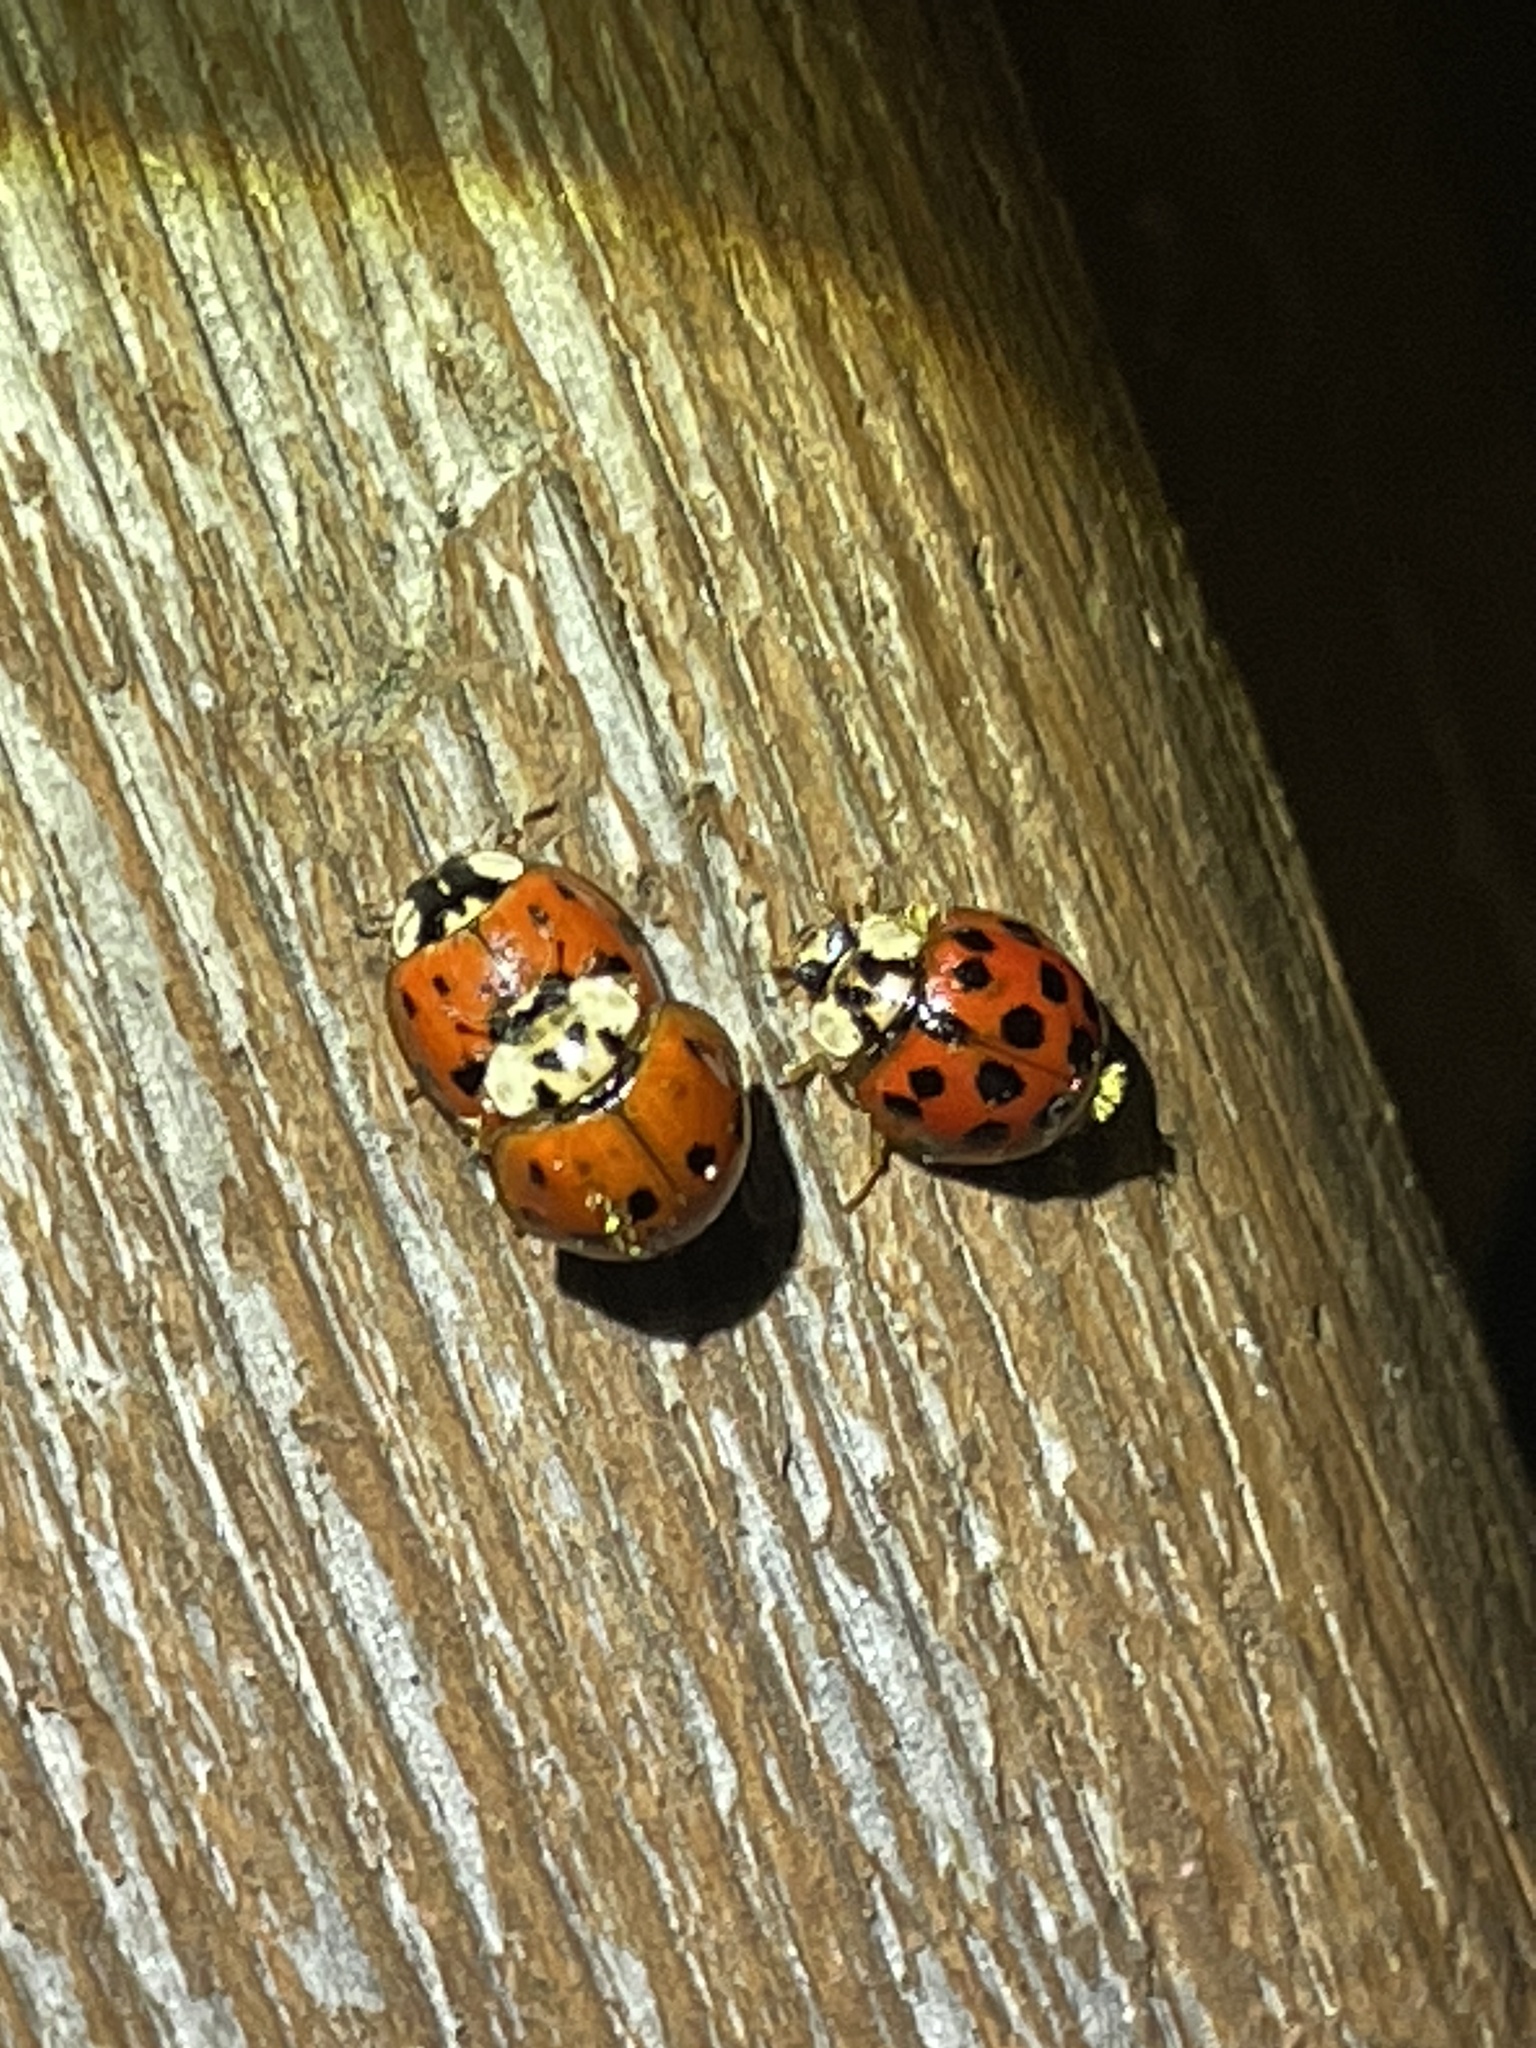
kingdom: Fungi
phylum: Ascomycota
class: Laboulbeniomycetes
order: Laboulbeniales
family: Laboulbeniaceae
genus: Hesperomyces
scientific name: Hesperomyces harmoniae
